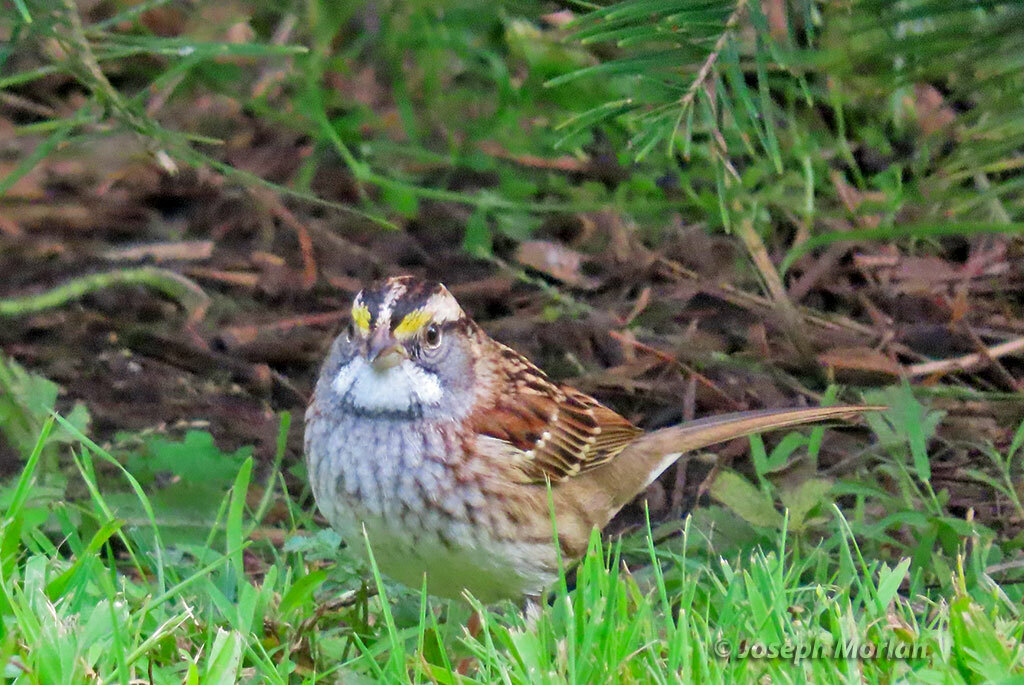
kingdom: Animalia
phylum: Chordata
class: Aves
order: Passeriformes
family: Passerellidae
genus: Zonotrichia
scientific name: Zonotrichia albicollis
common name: White-throated sparrow
